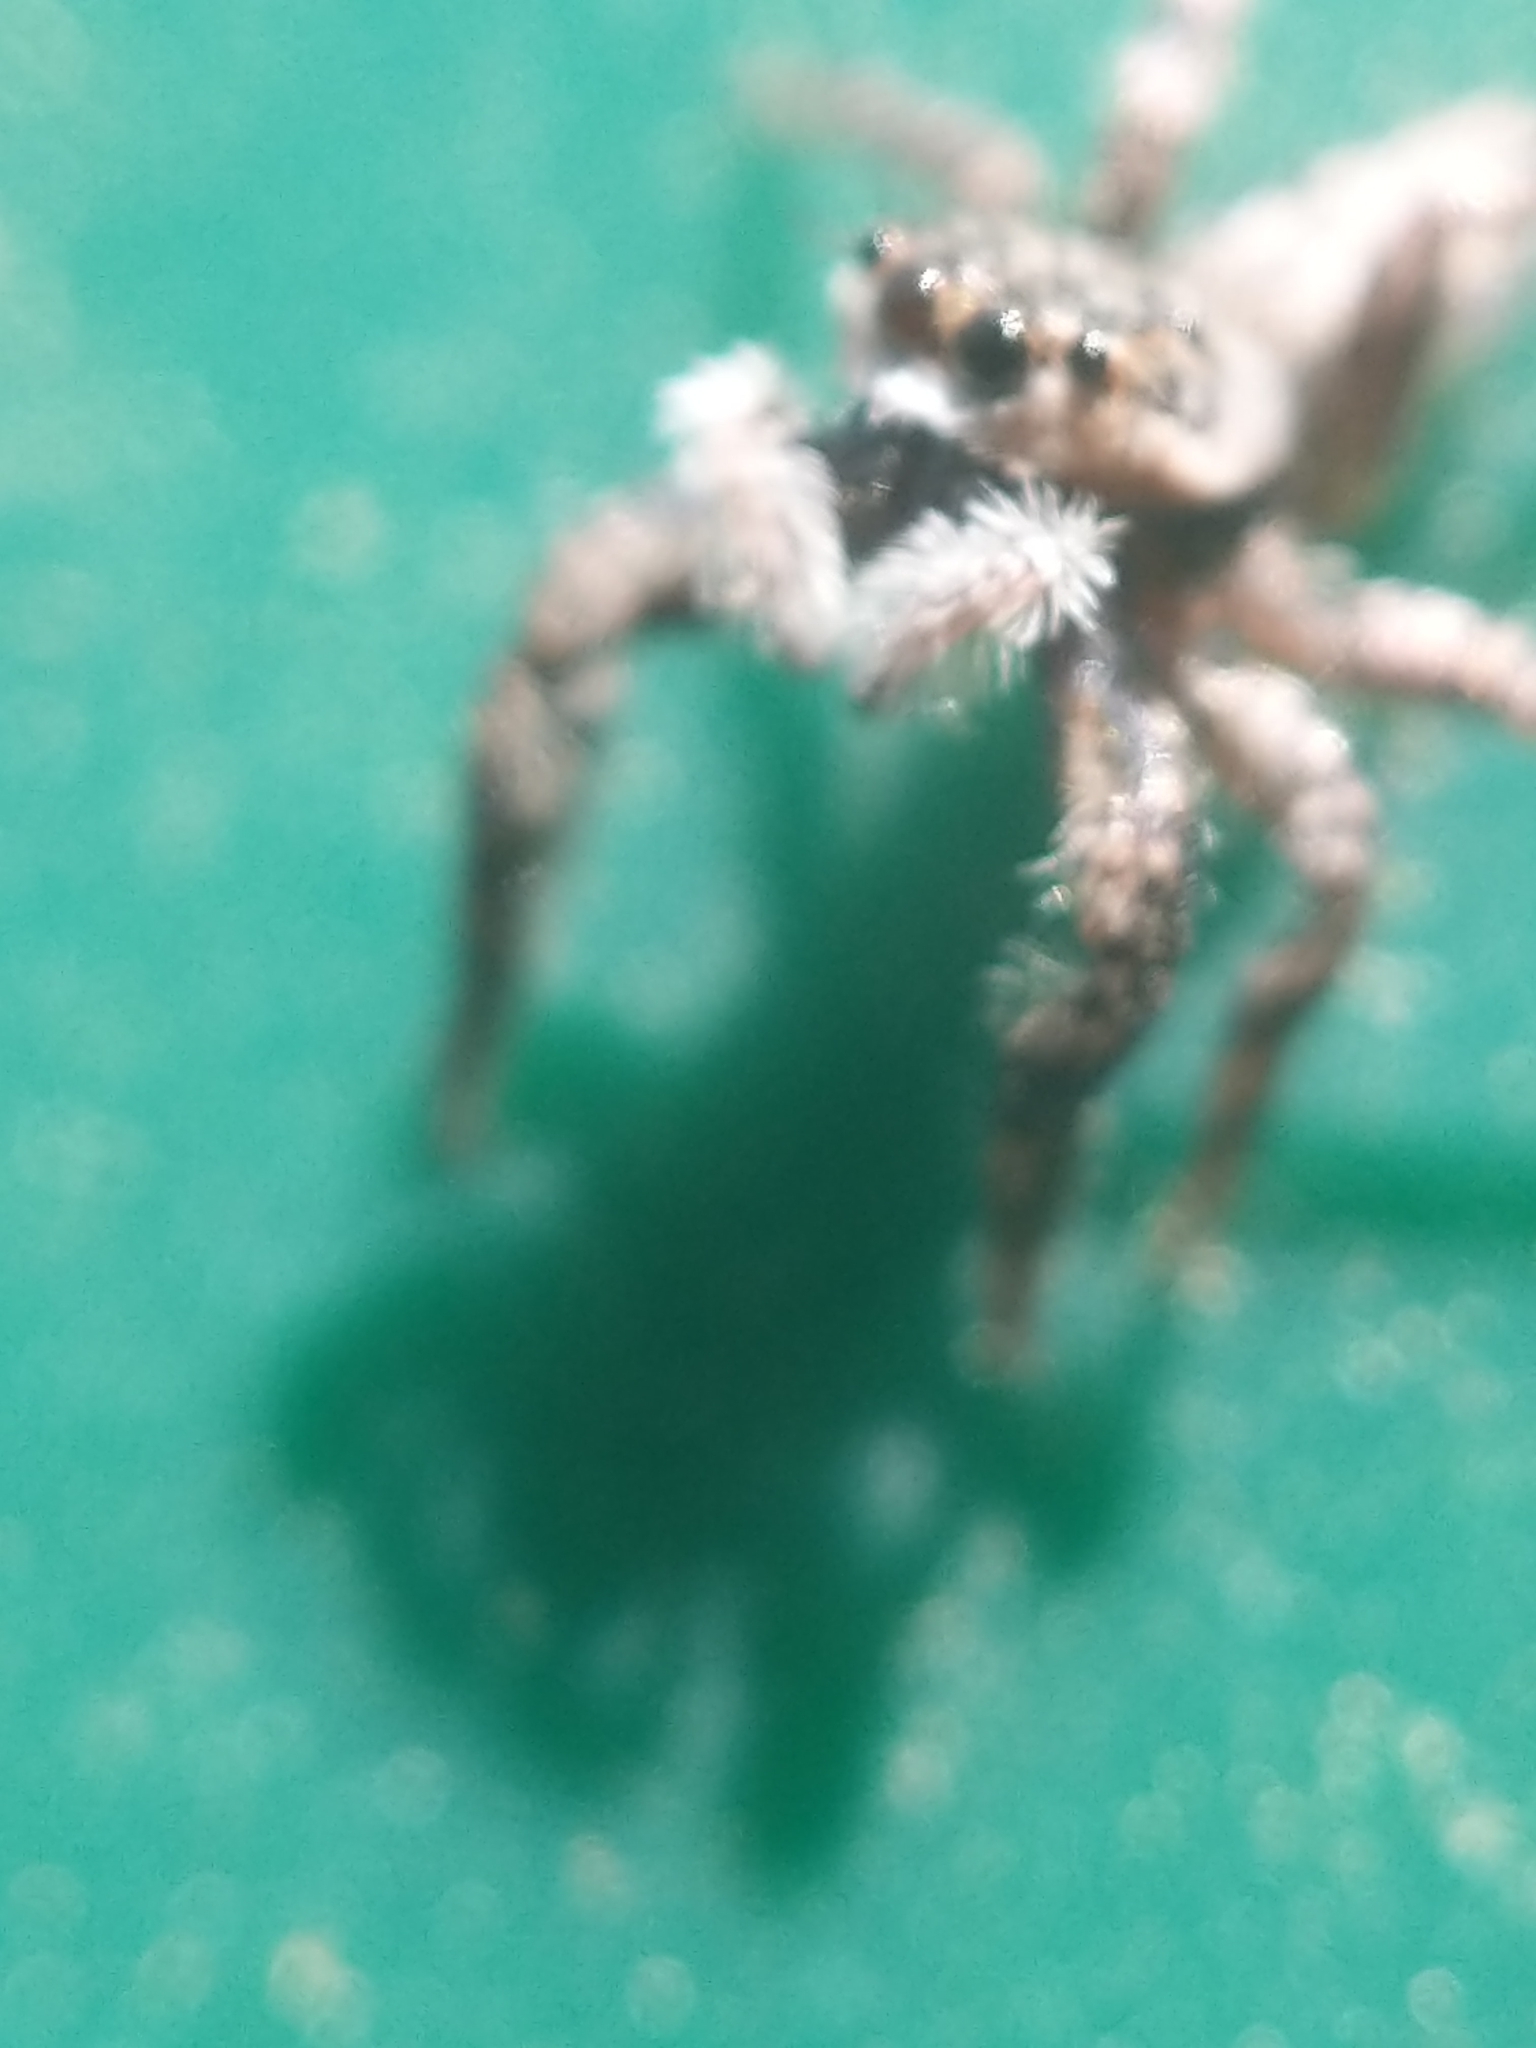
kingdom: Animalia
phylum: Arthropoda
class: Arachnida
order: Araneae
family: Salticidae
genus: Platycryptus
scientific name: Platycryptus undatus
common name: Tan jumping spider
